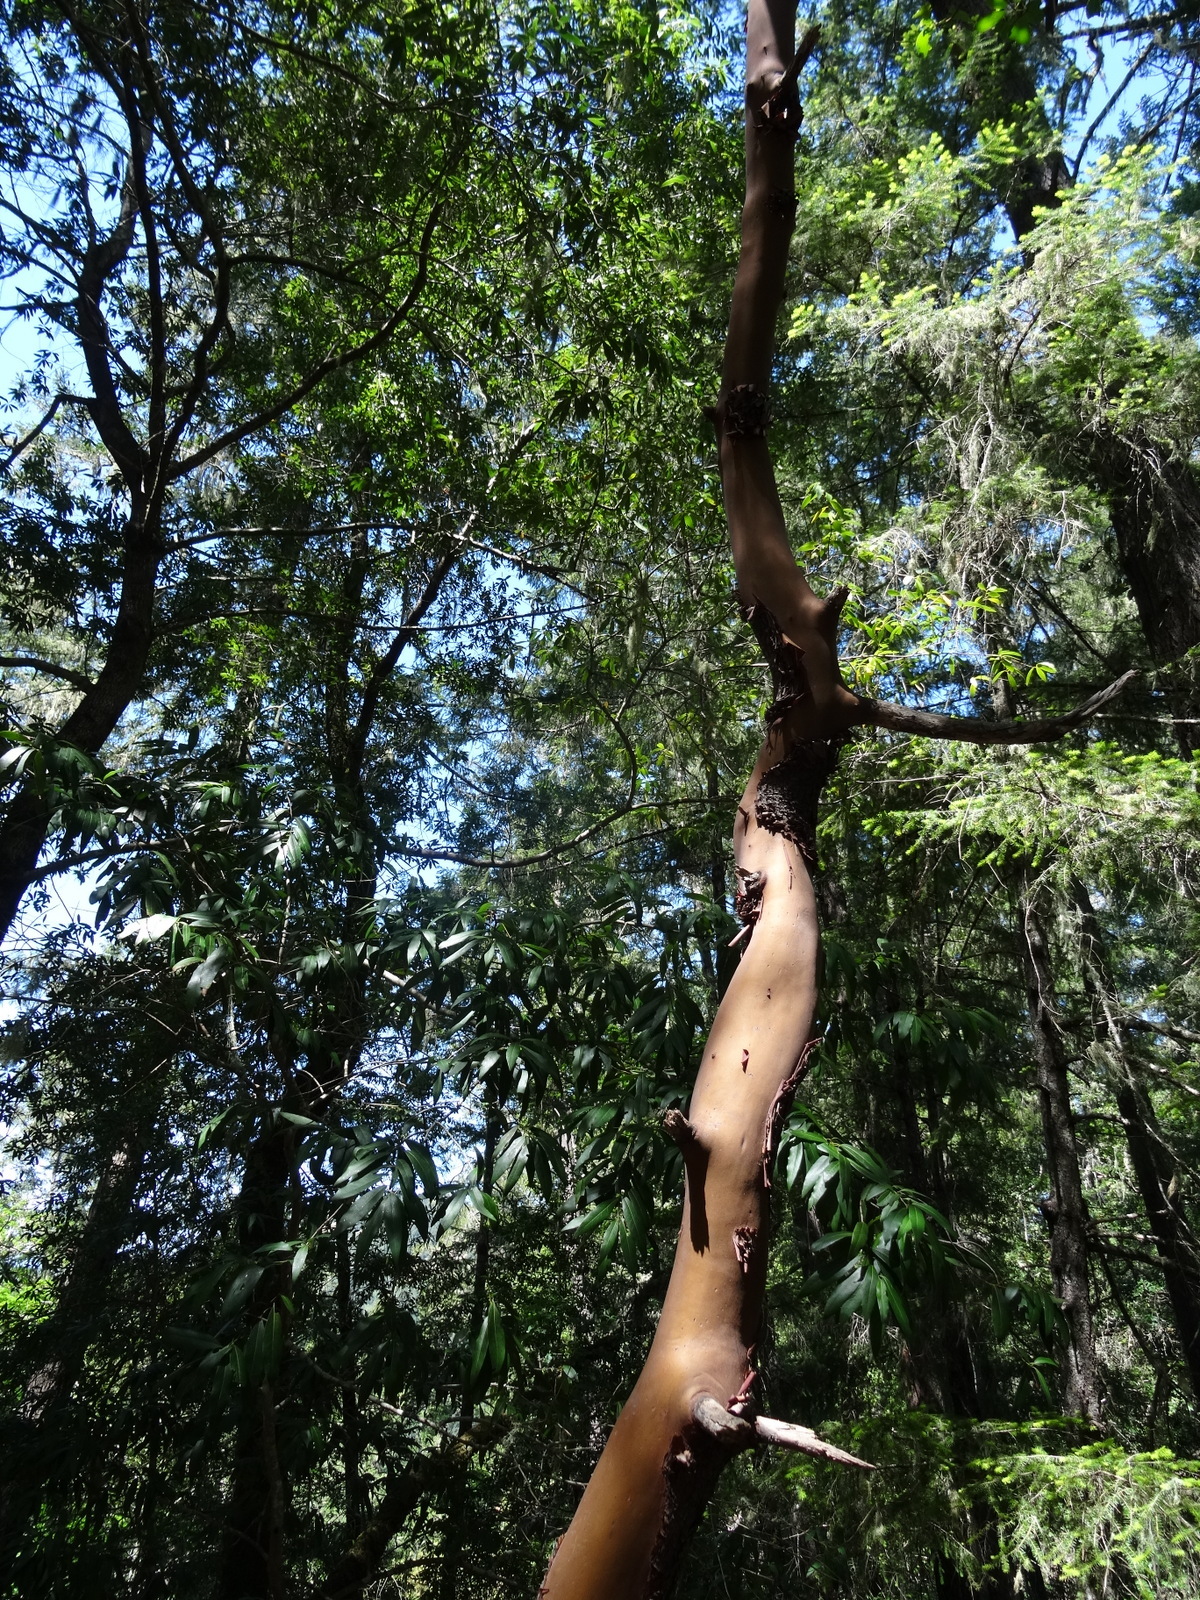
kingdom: Plantae
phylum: Tracheophyta
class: Magnoliopsida
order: Ericales
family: Ericaceae
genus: Arbutus
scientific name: Arbutus menziesii
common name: Pacific madrone
